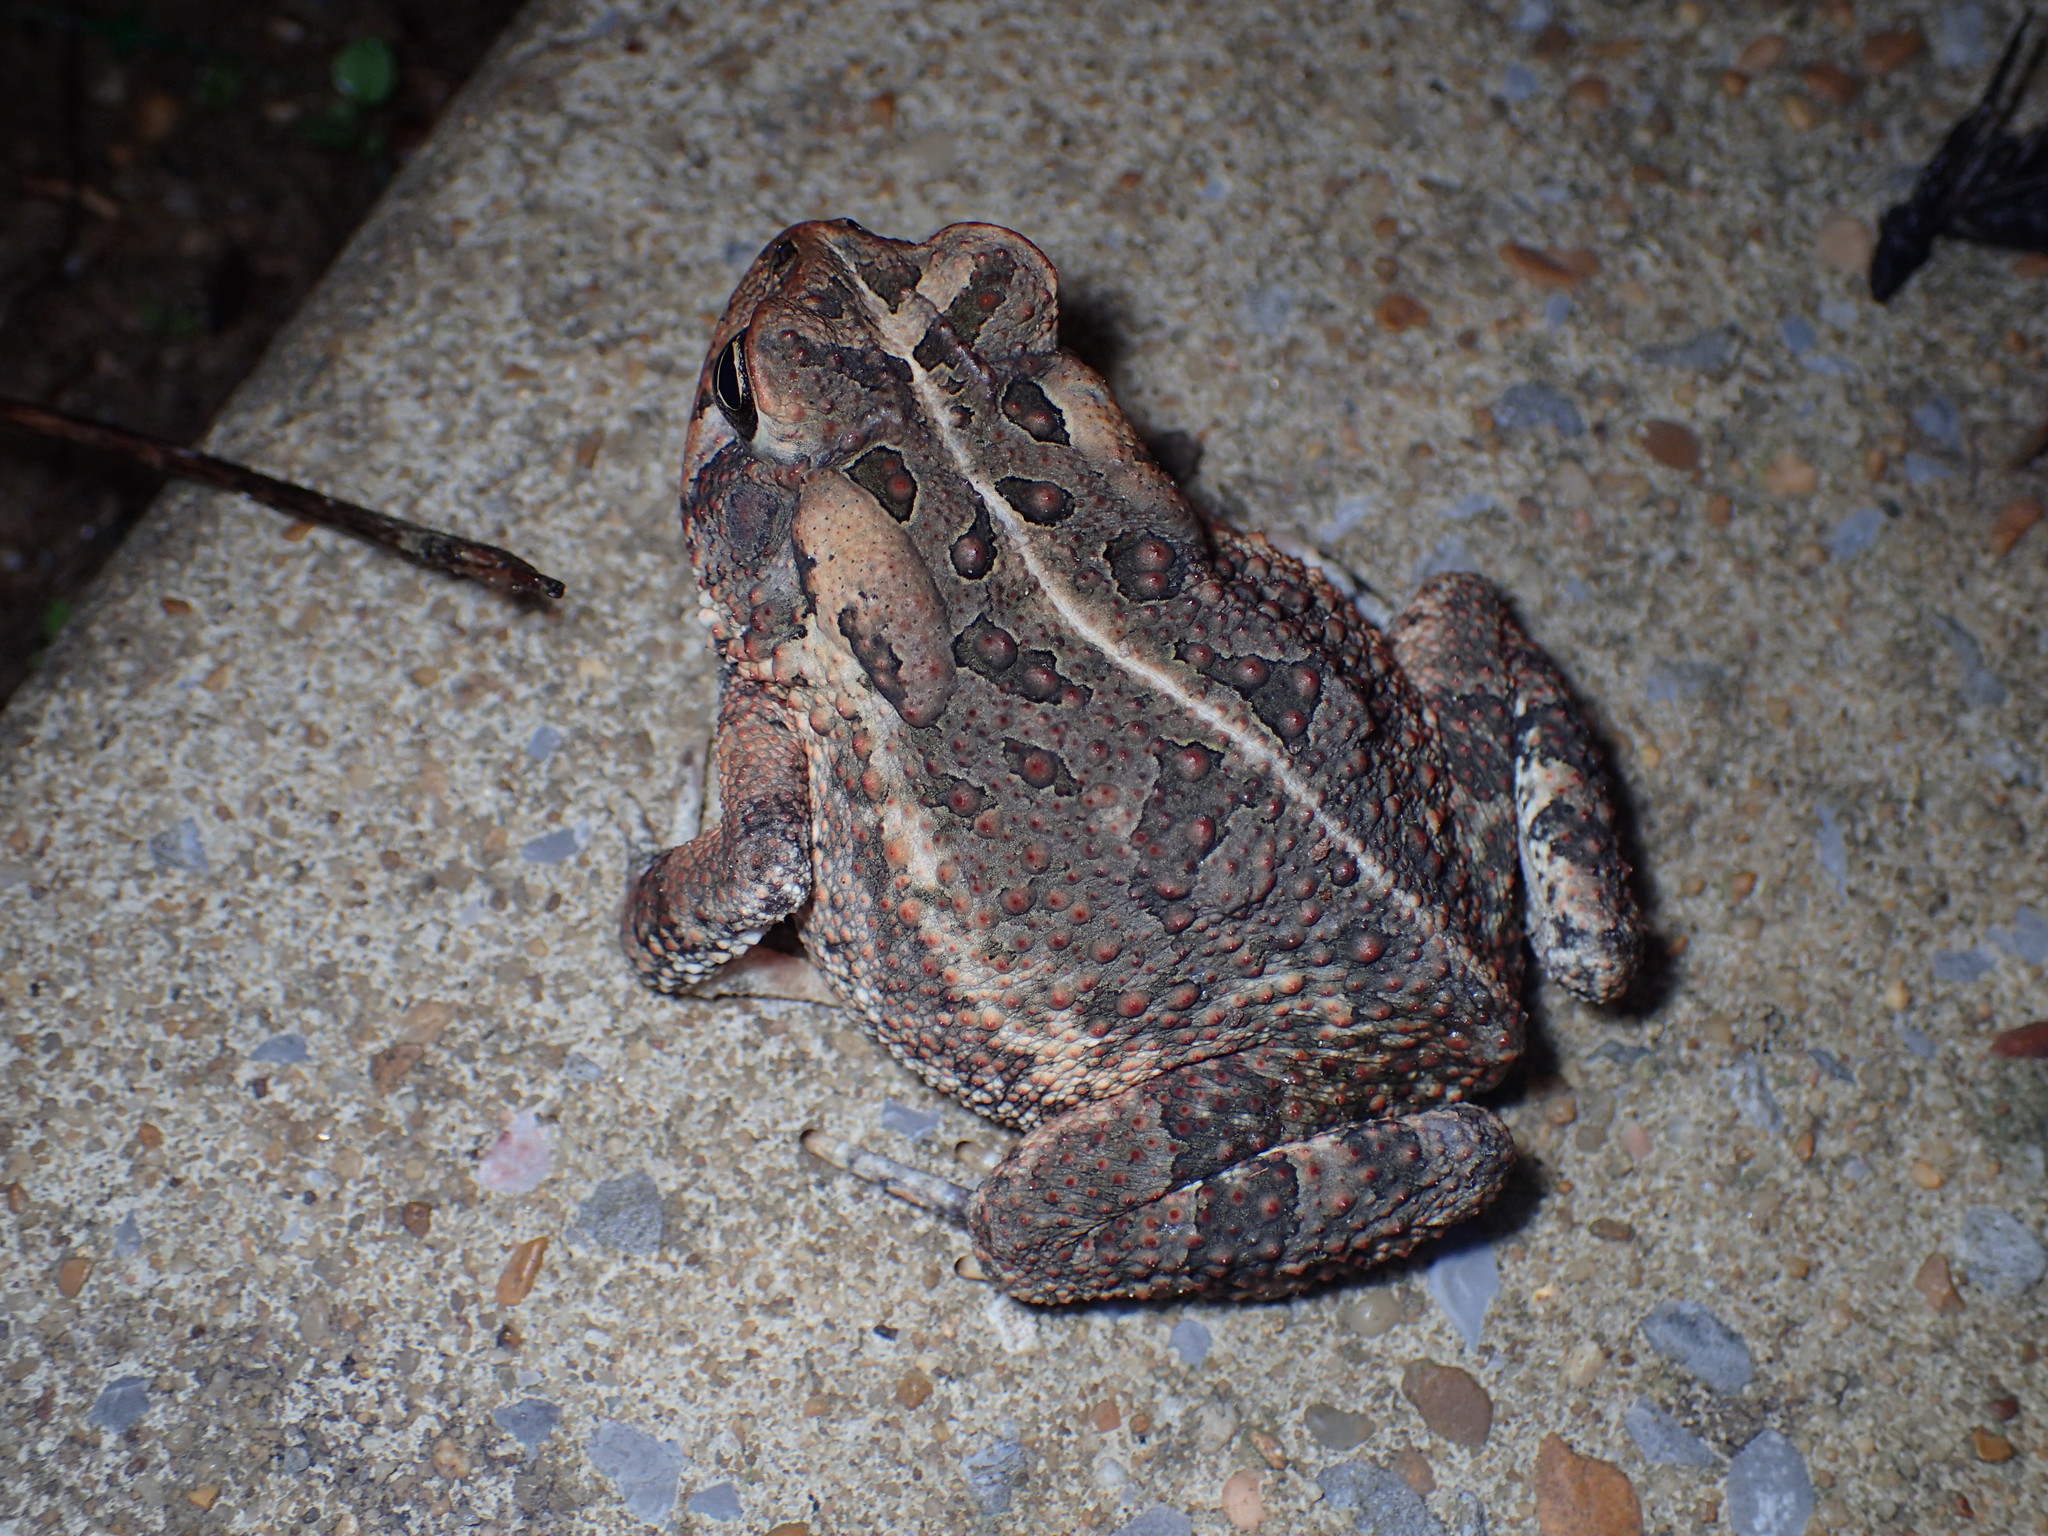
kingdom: Animalia
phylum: Chordata
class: Amphibia
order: Anura
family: Bufonidae
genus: Anaxyrus
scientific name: Anaxyrus fowleri
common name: Fowler's toad
